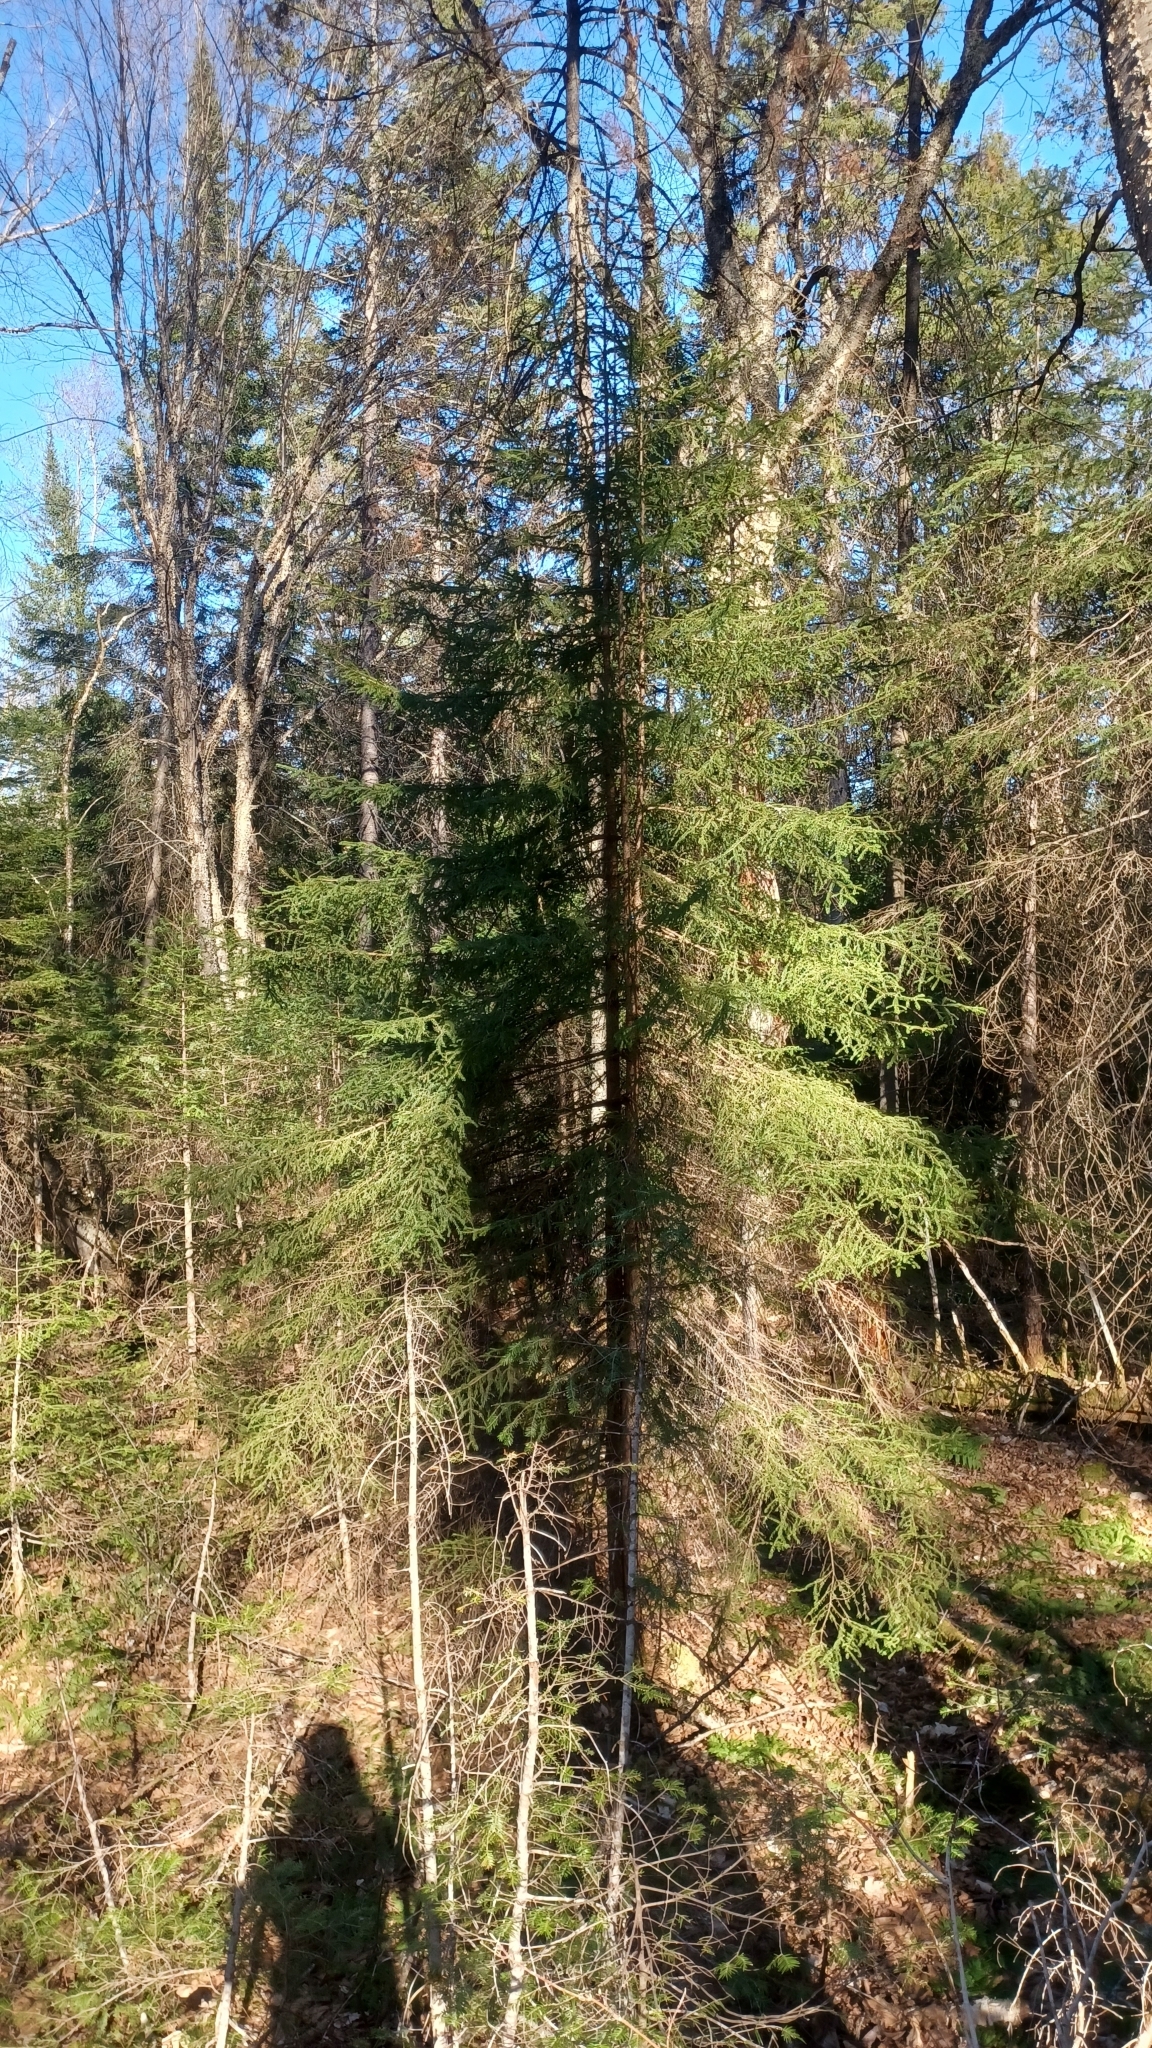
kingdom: Plantae
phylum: Tracheophyta
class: Pinopsida
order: Pinales
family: Pinaceae
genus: Picea
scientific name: Picea rubens
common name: Red spruce
